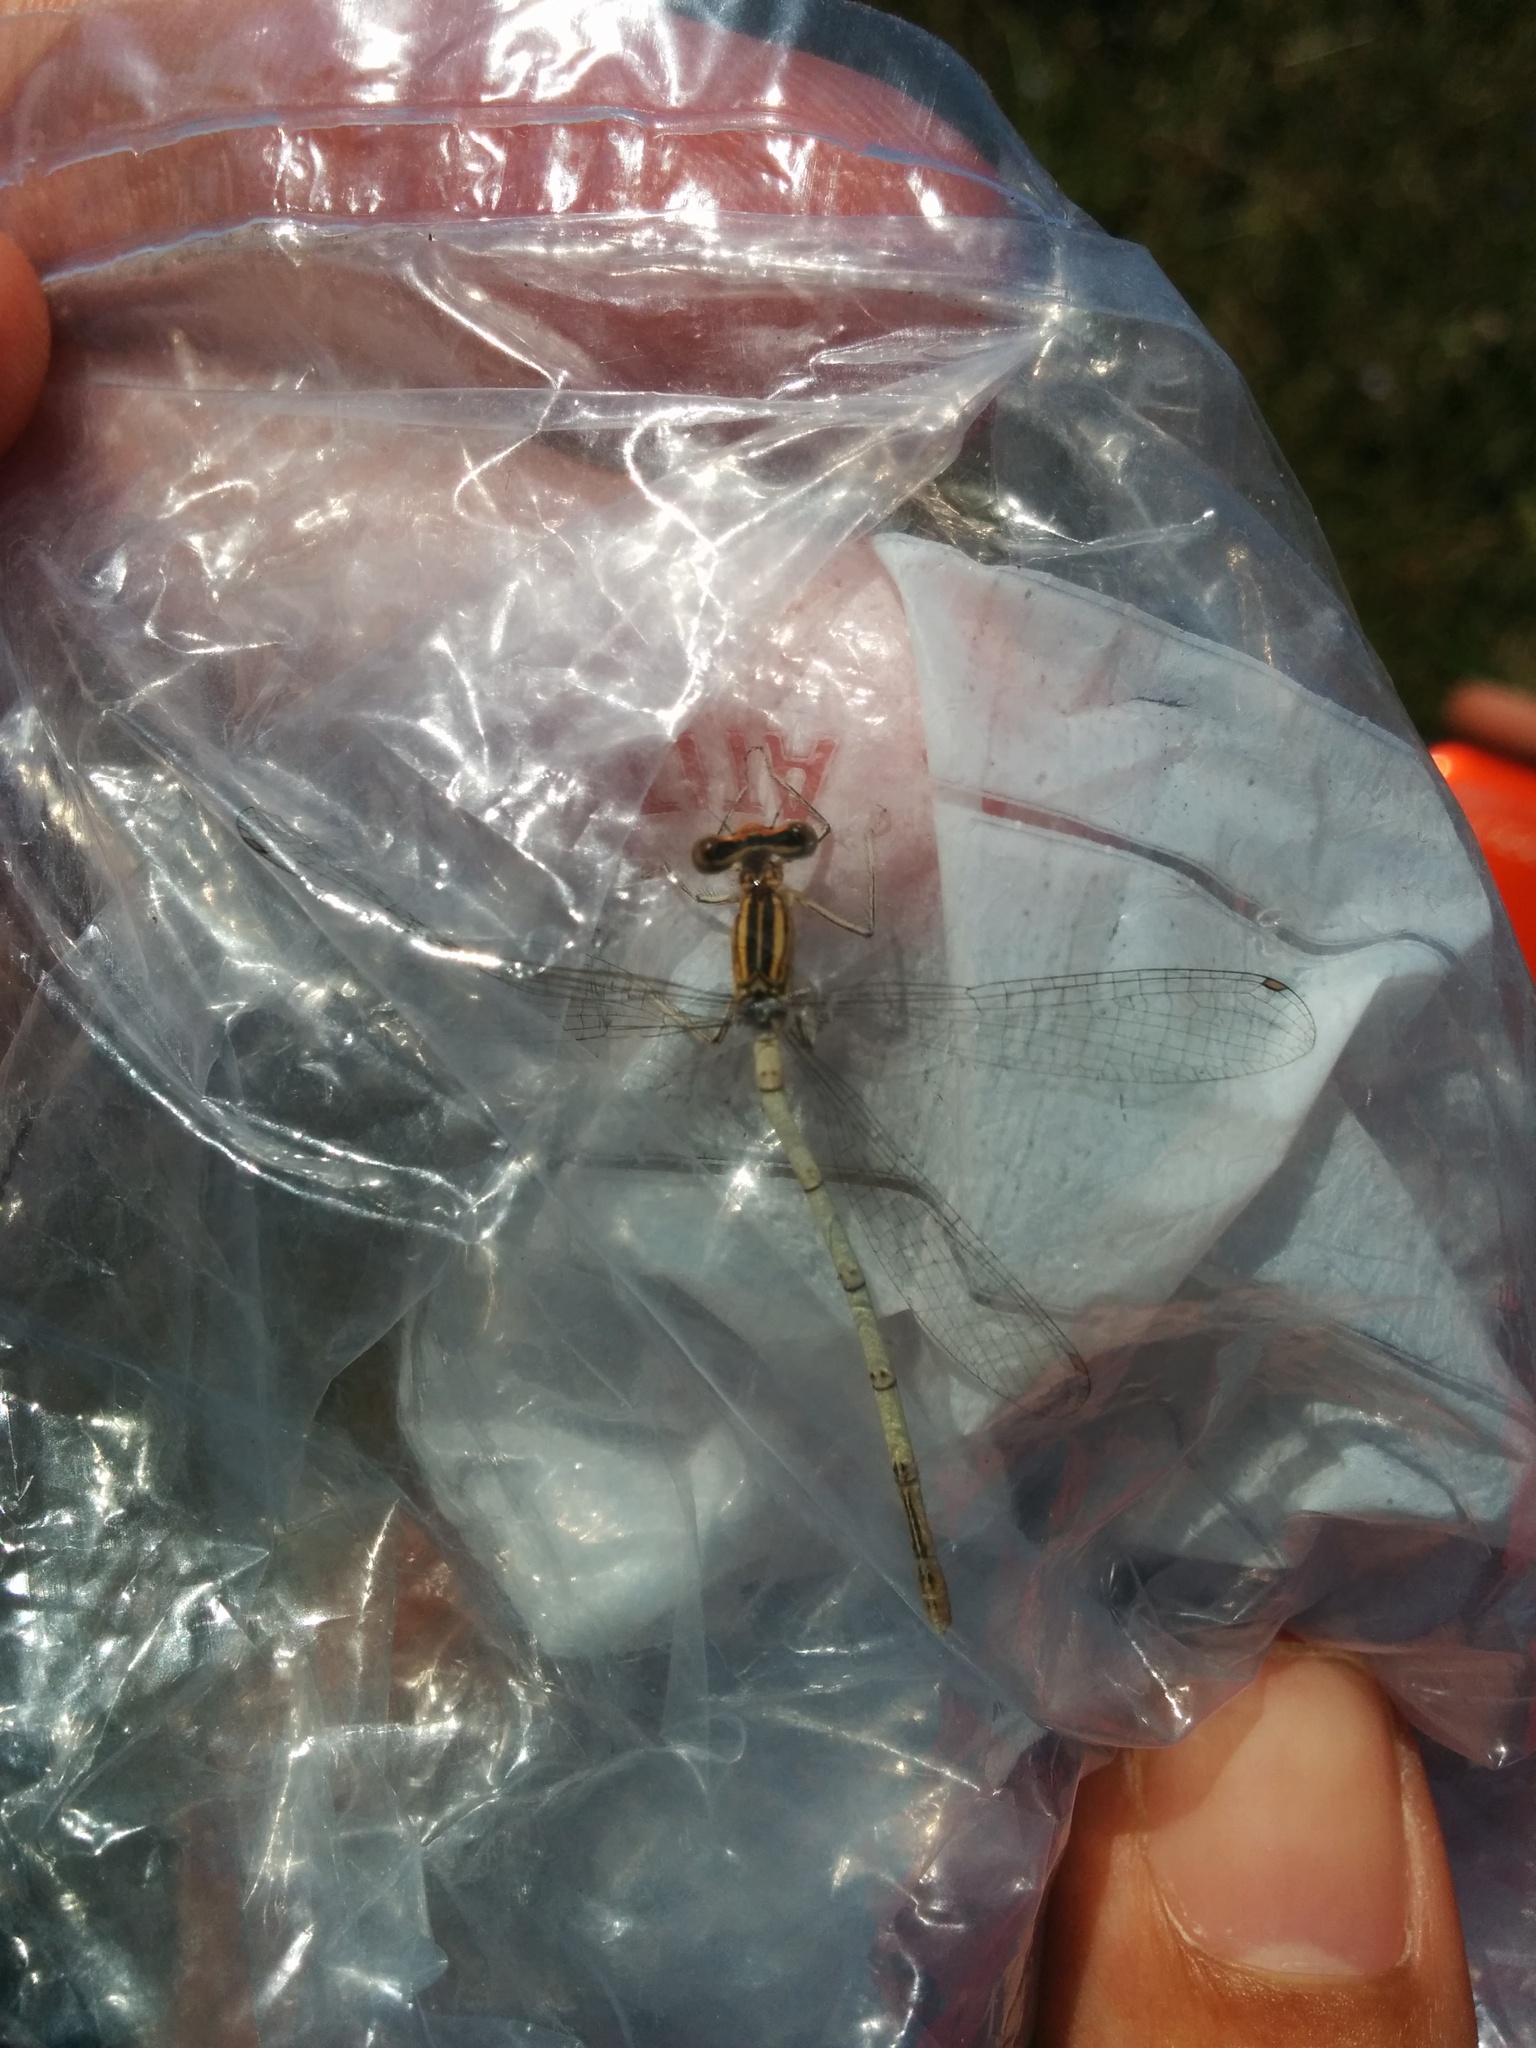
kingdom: Animalia
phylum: Arthropoda
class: Insecta
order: Odonata
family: Platycnemididae
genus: Platycnemis
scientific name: Platycnemis pennipes
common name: White-legged damselfly
